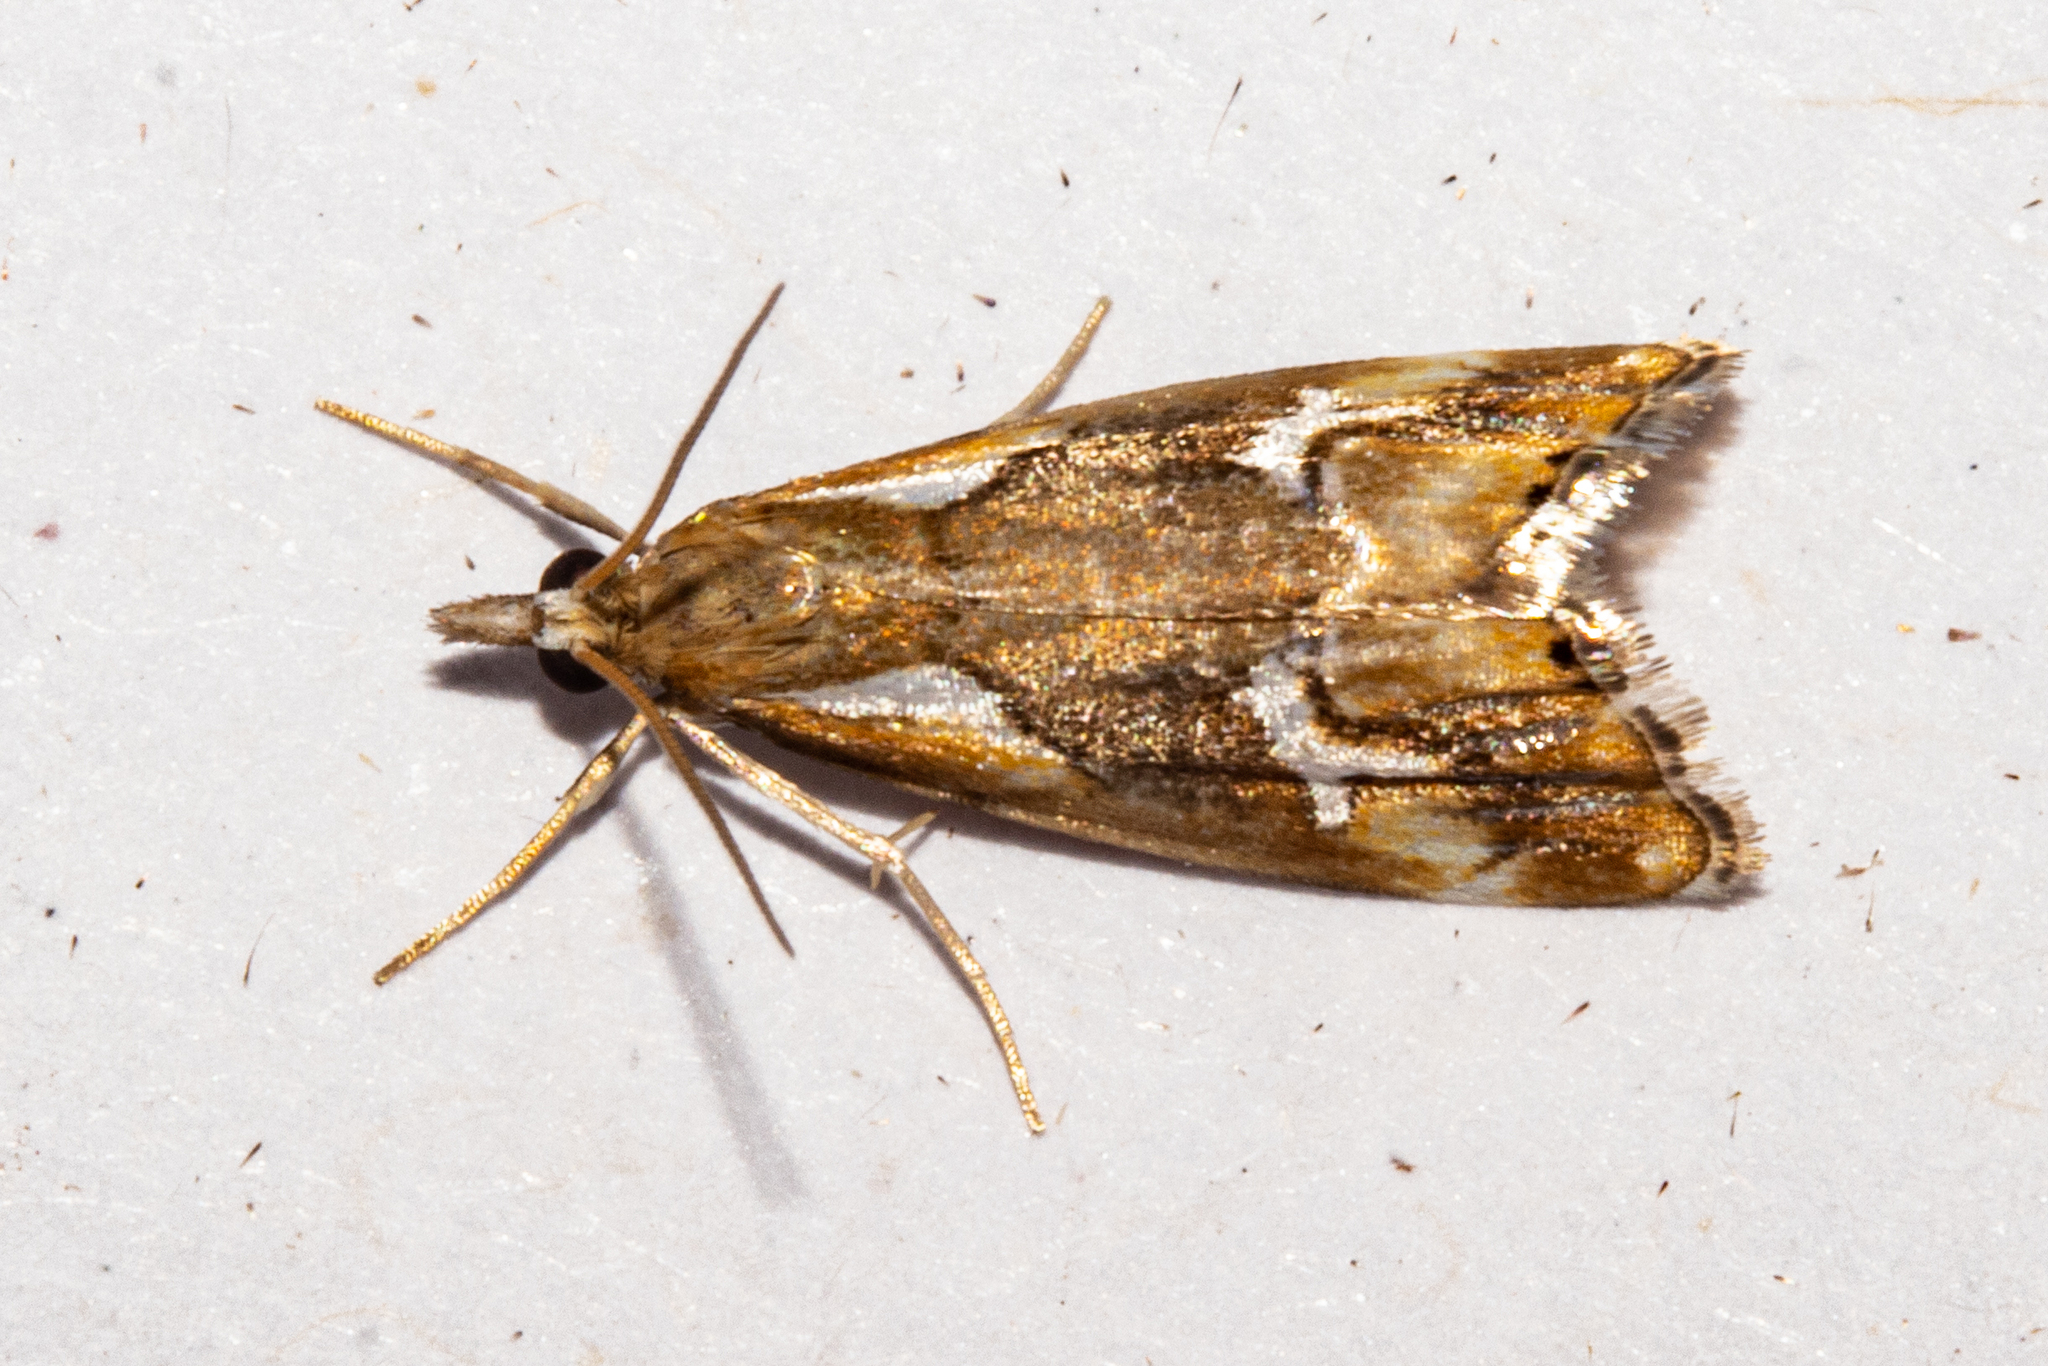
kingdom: Animalia
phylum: Arthropoda
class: Insecta
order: Lepidoptera
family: Crambidae
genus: Glaucocharis
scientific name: Glaucocharis interruptus
